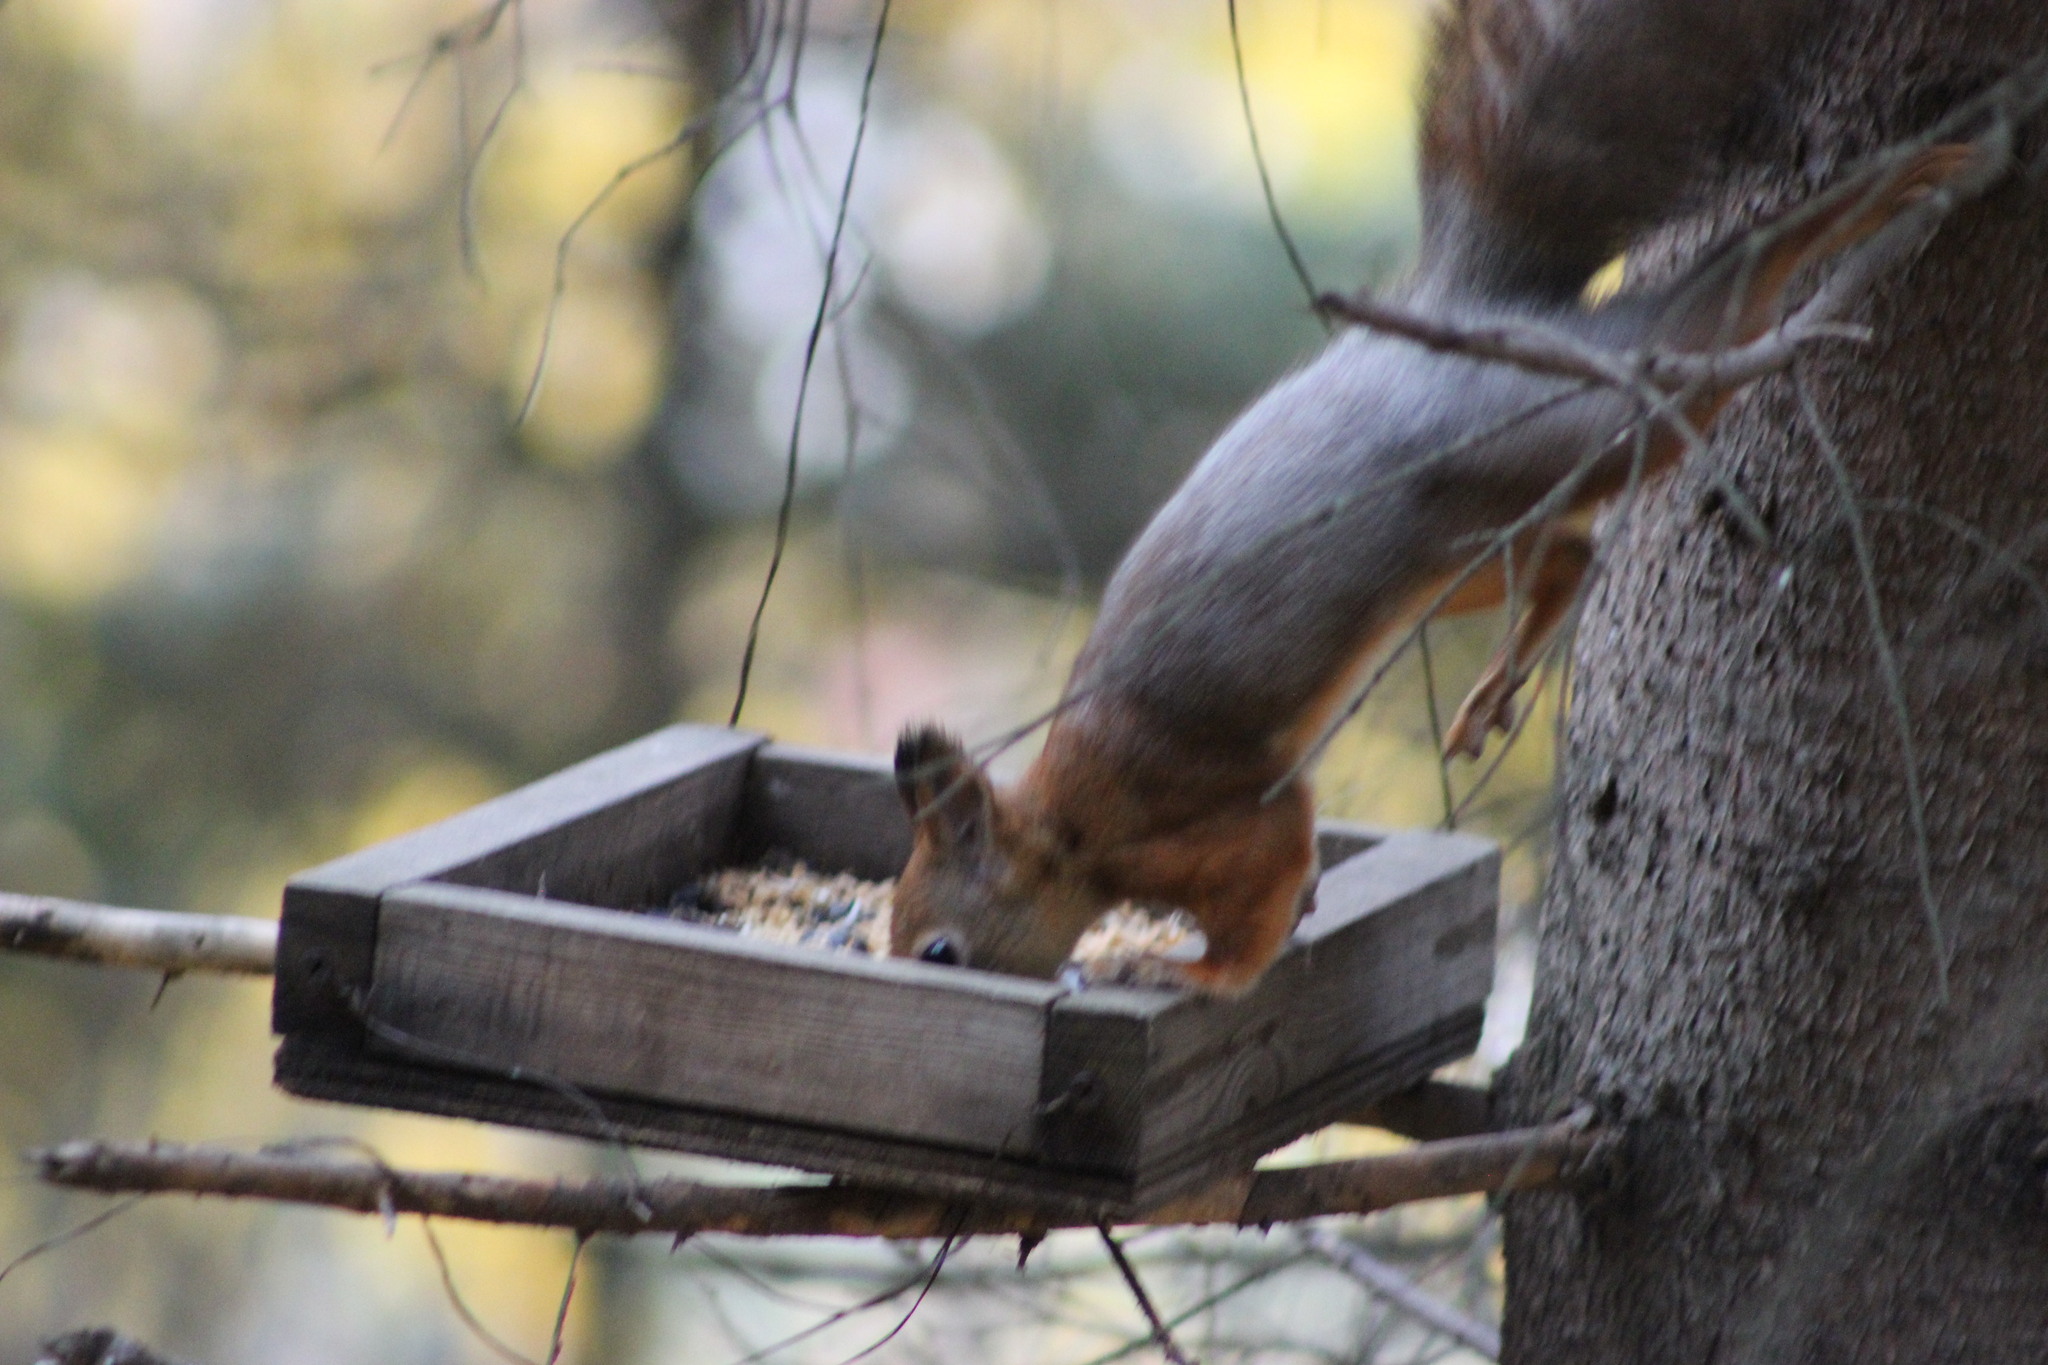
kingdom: Animalia
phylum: Chordata
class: Mammalia
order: Rodentia
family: Sciuridae
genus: Sciurus
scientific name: Sciurus vulgaris
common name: Eurasian red squirrel
